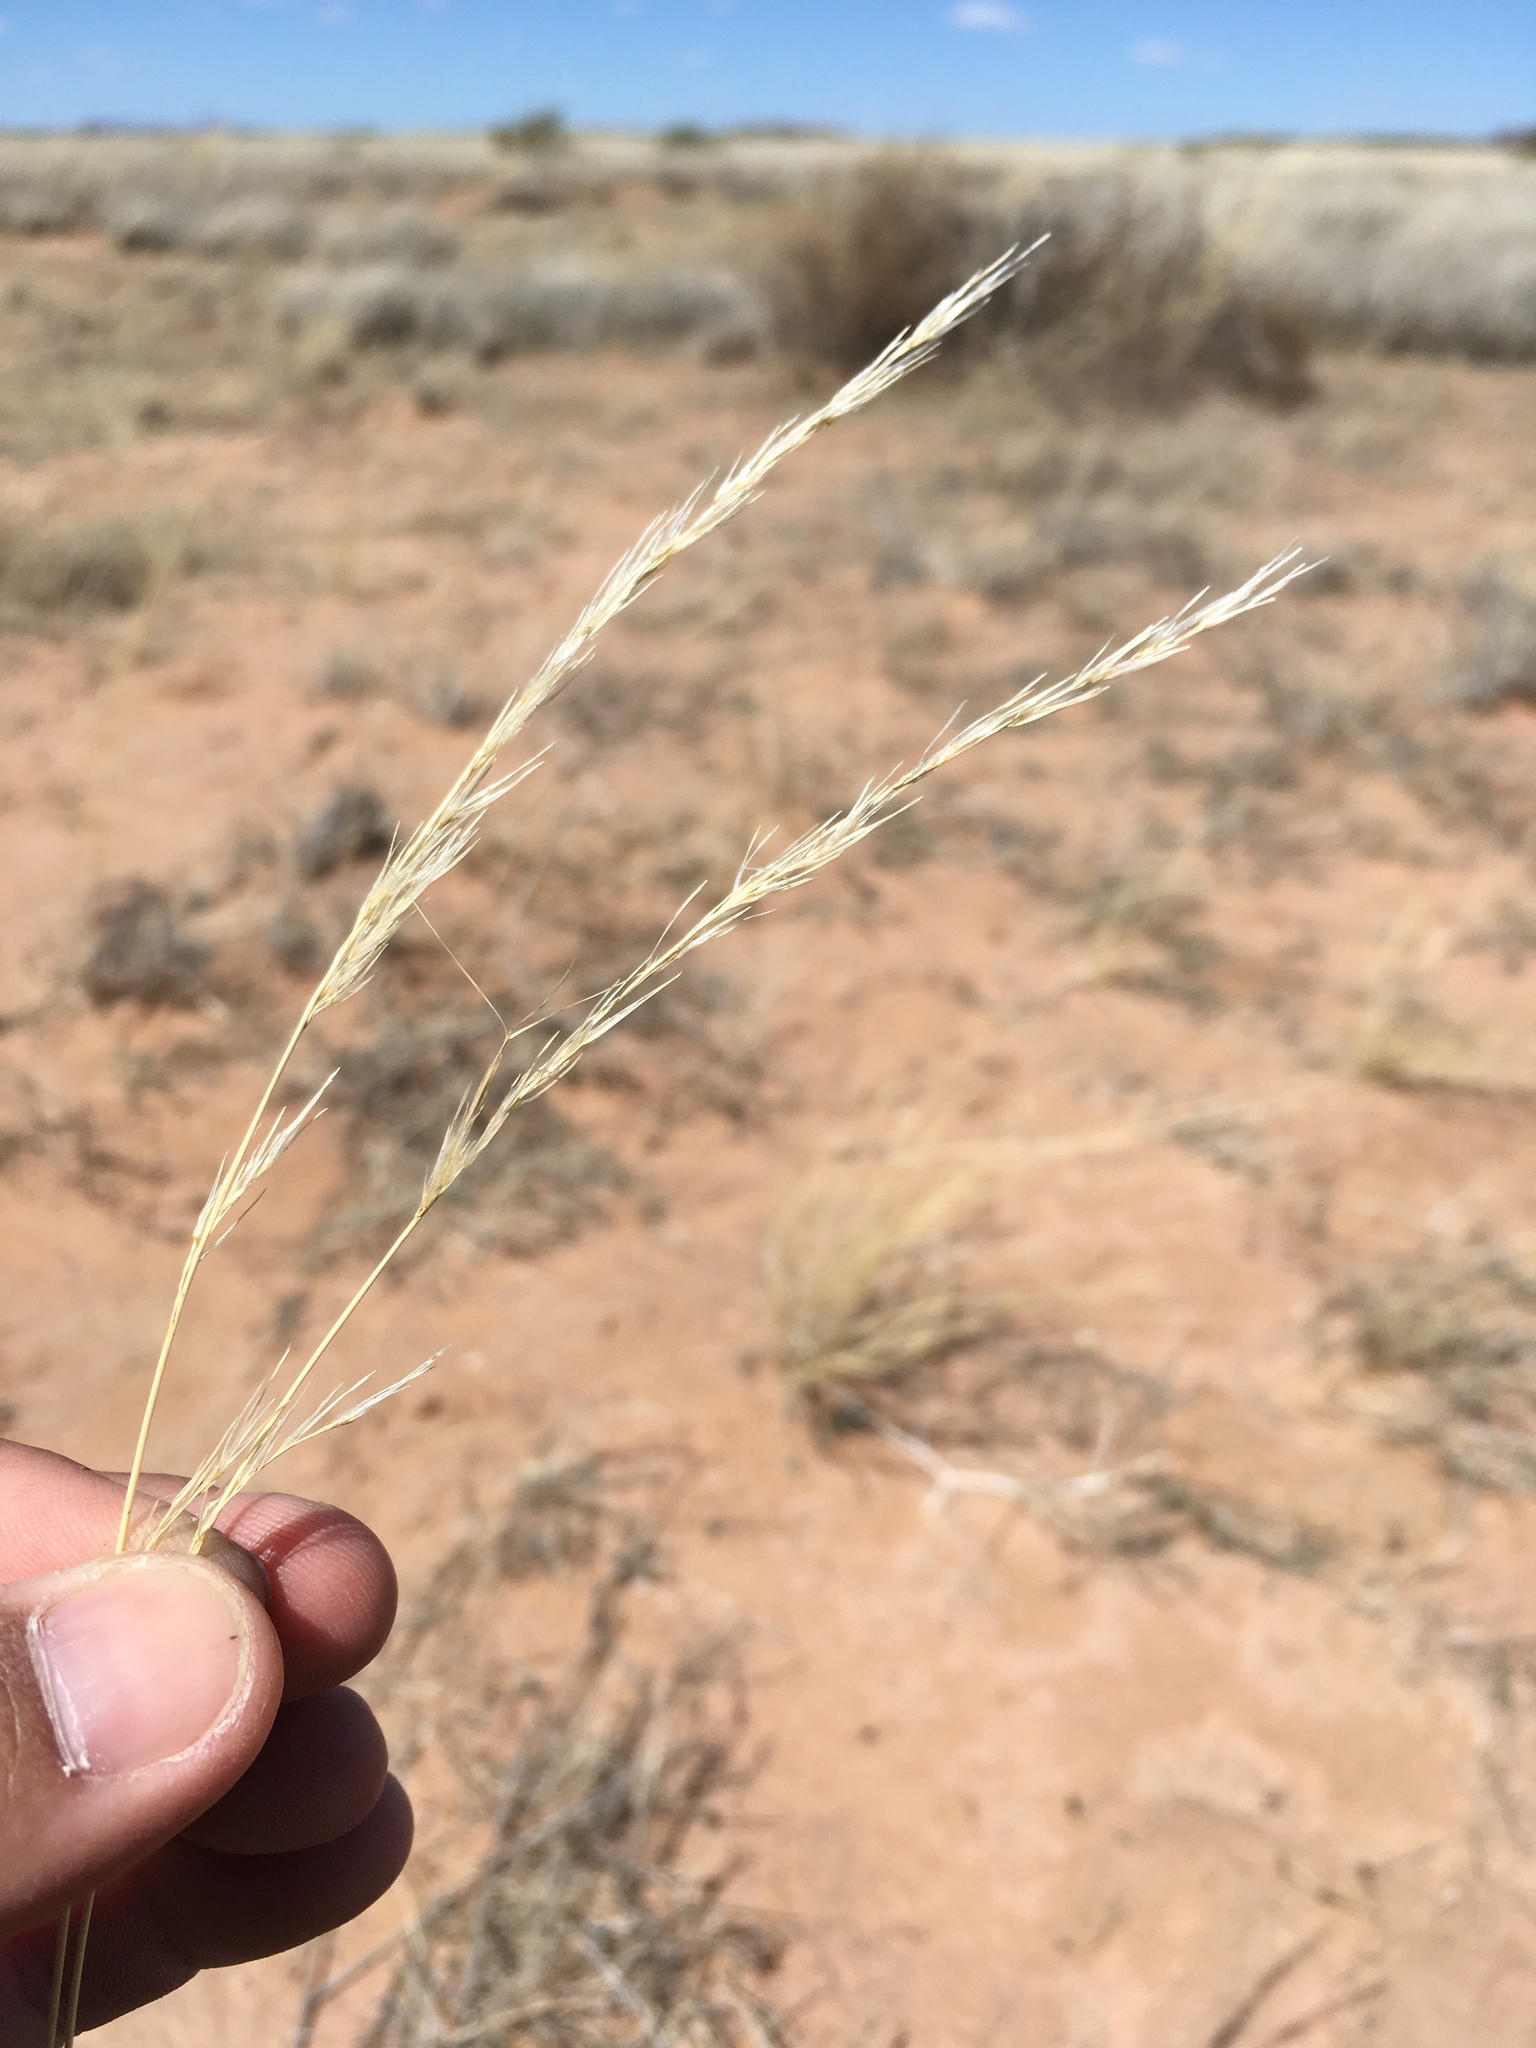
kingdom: Plantae
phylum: Tracheophyta
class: Liliopsida
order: Poales
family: Poaceae
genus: Aristida
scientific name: Aristida adscensionis
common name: Sixweeks threeawn
